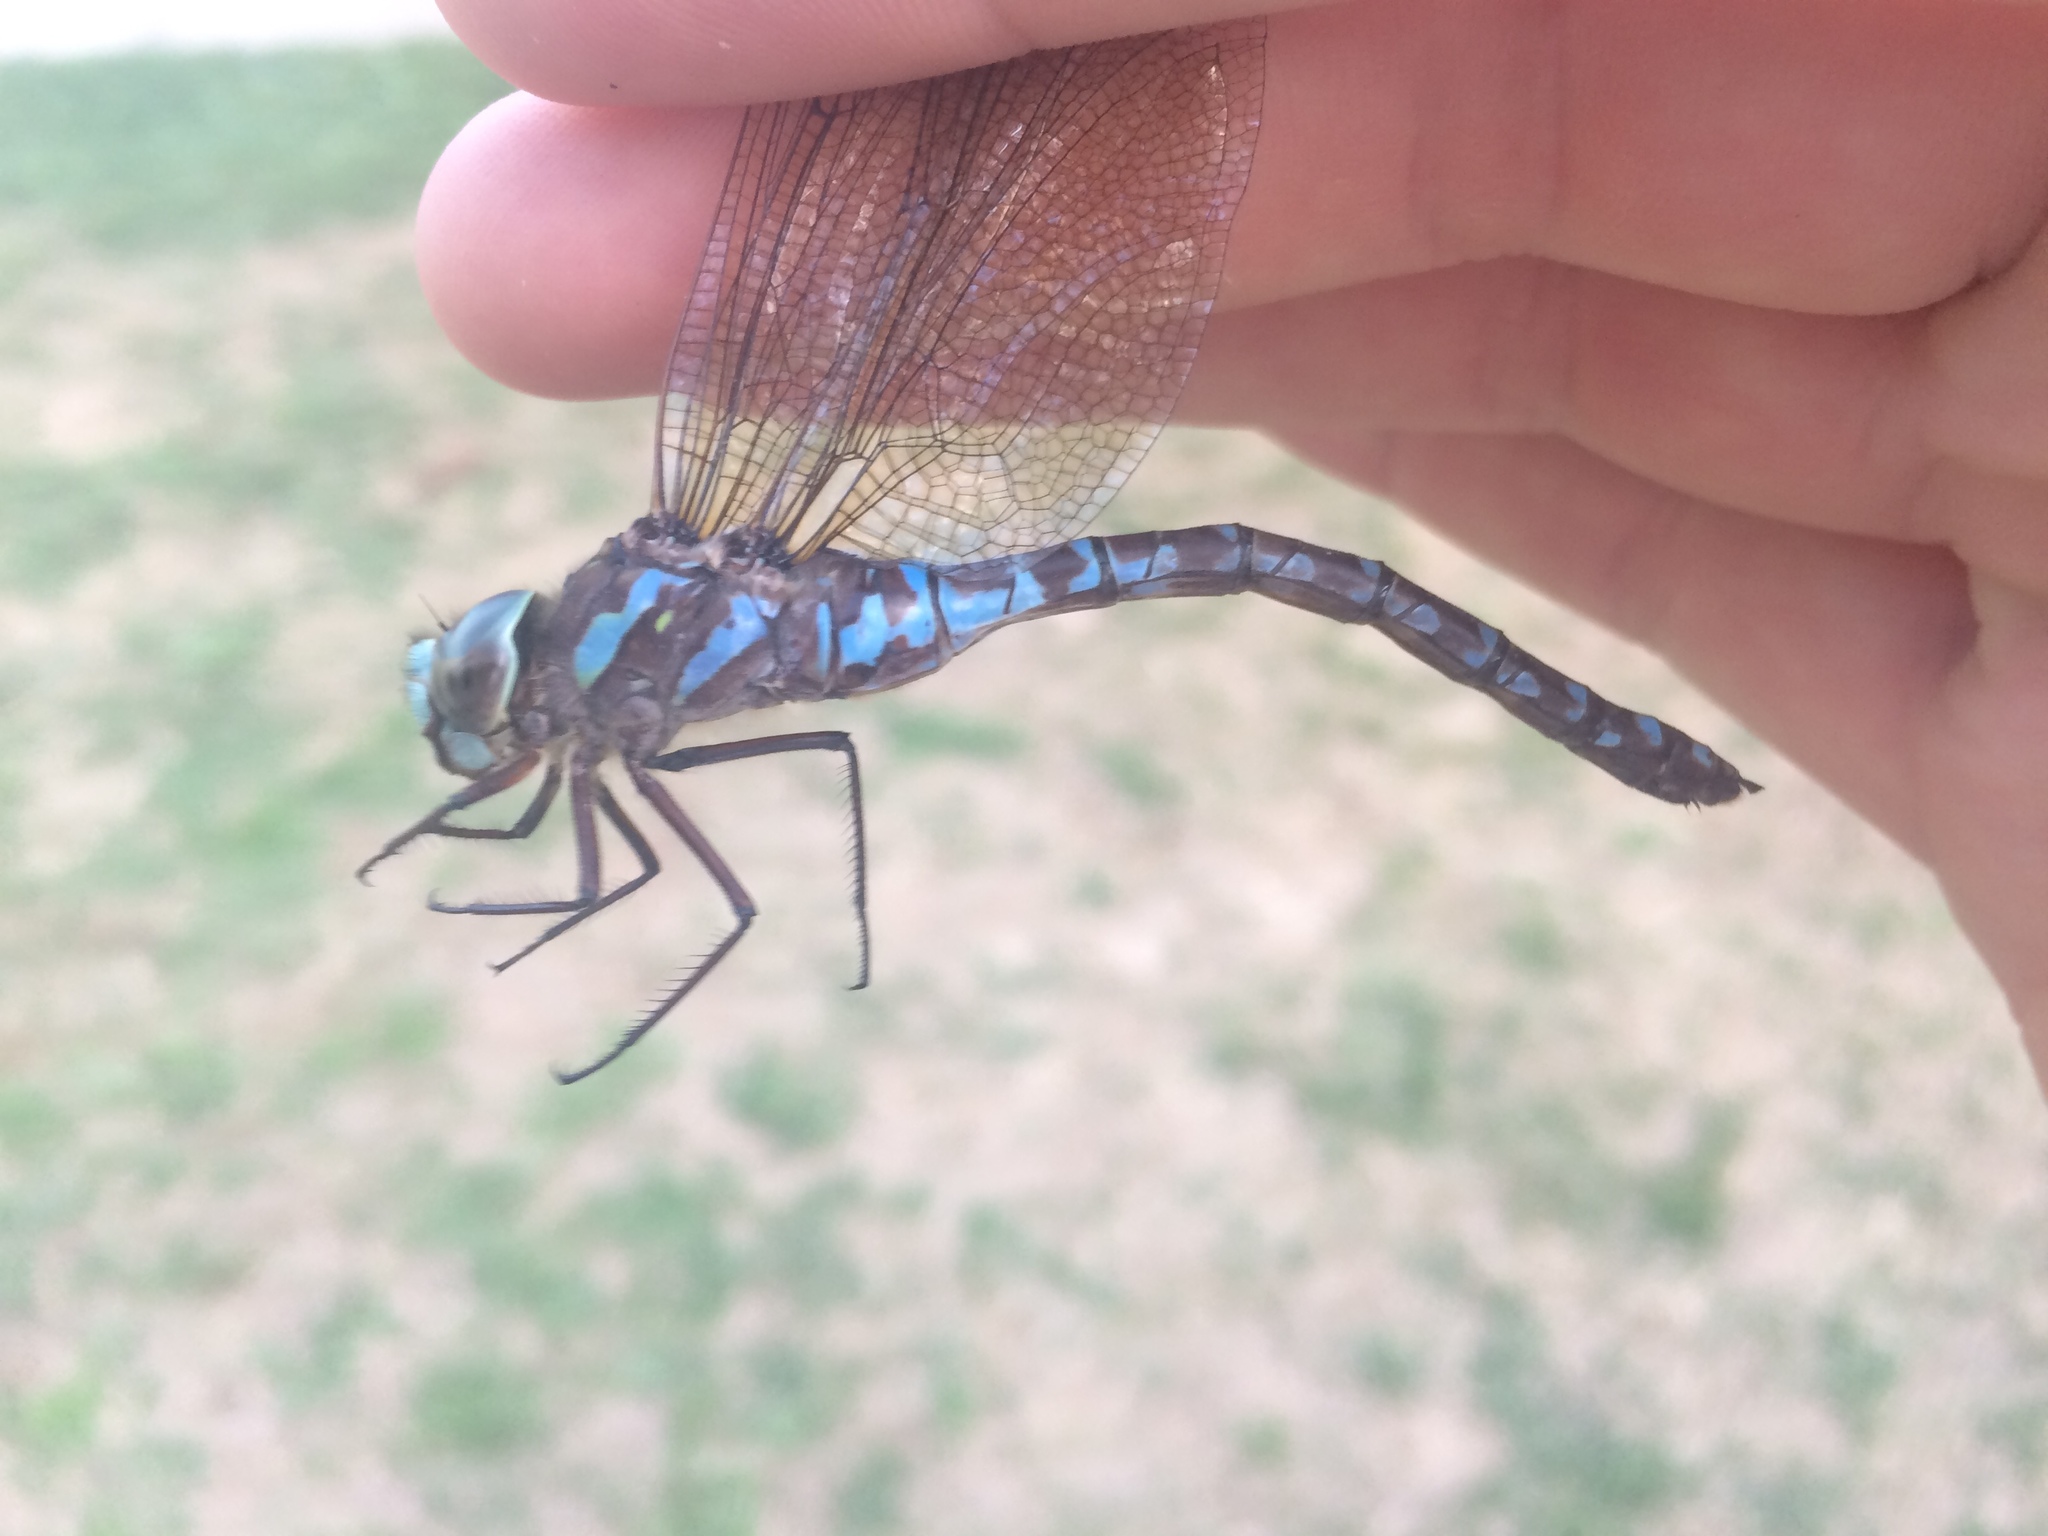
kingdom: Animalia
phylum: Arthropoda
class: Insecta
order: Odonata
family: Aeshnidae
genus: Aeshna
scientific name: Aeshna canadensis
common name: Canada darner
